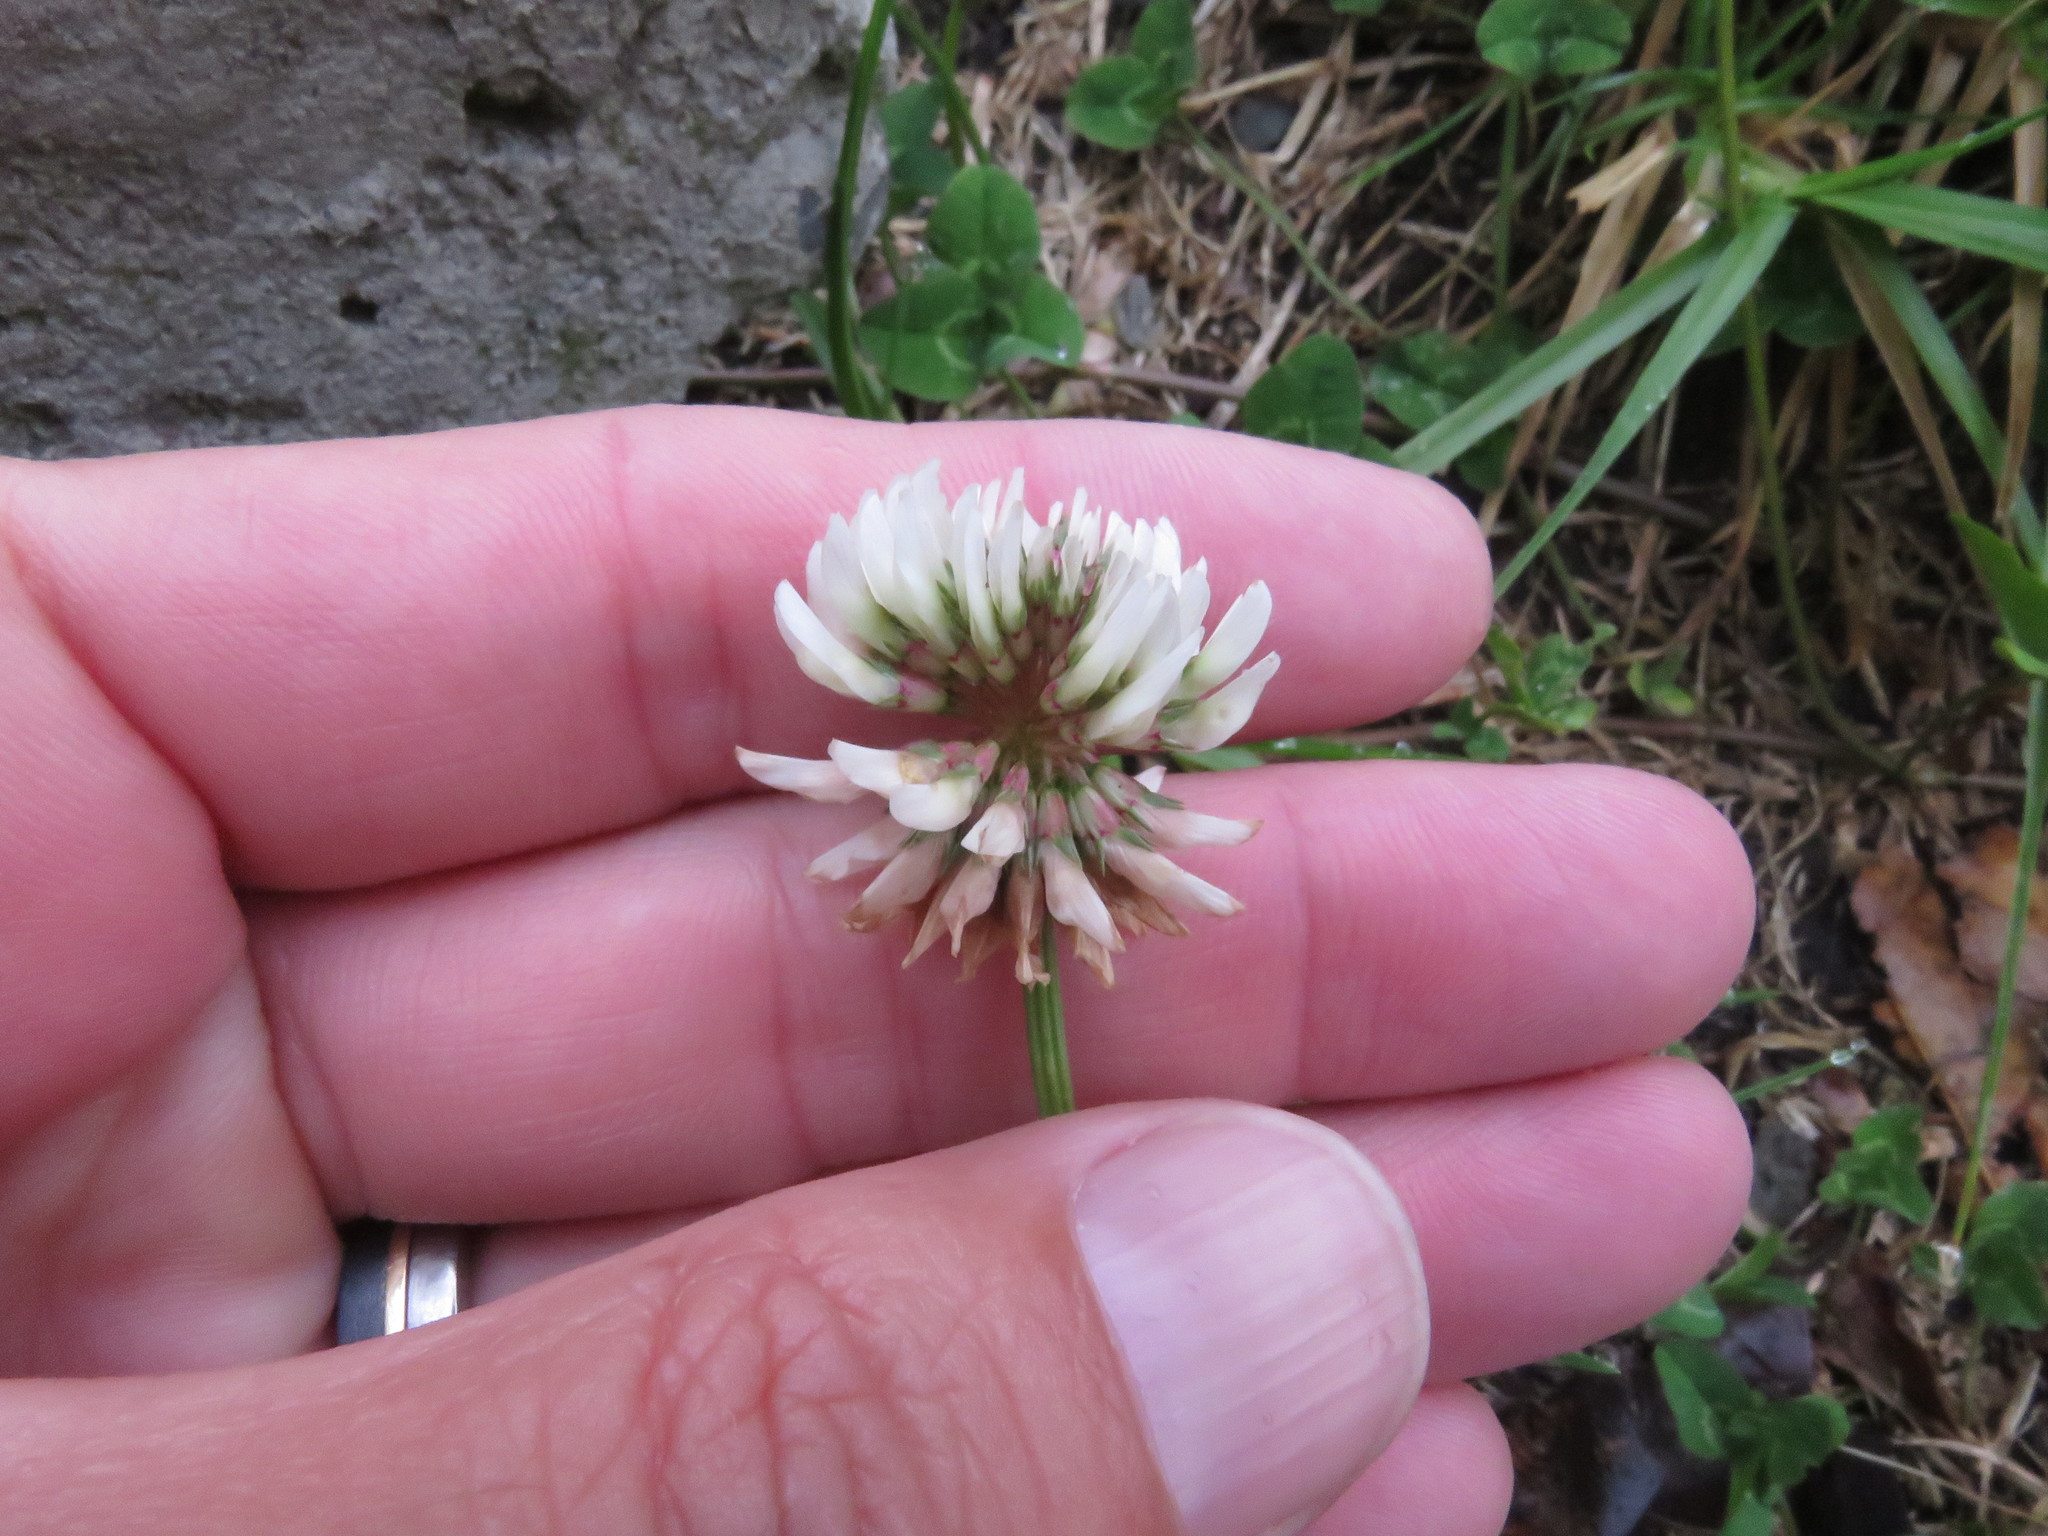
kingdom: Plantae
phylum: Tracheophyta
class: Magnoliopsida
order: Fabales
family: Fabaceae
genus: Trifolium
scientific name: Trifolium repens
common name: White clover
